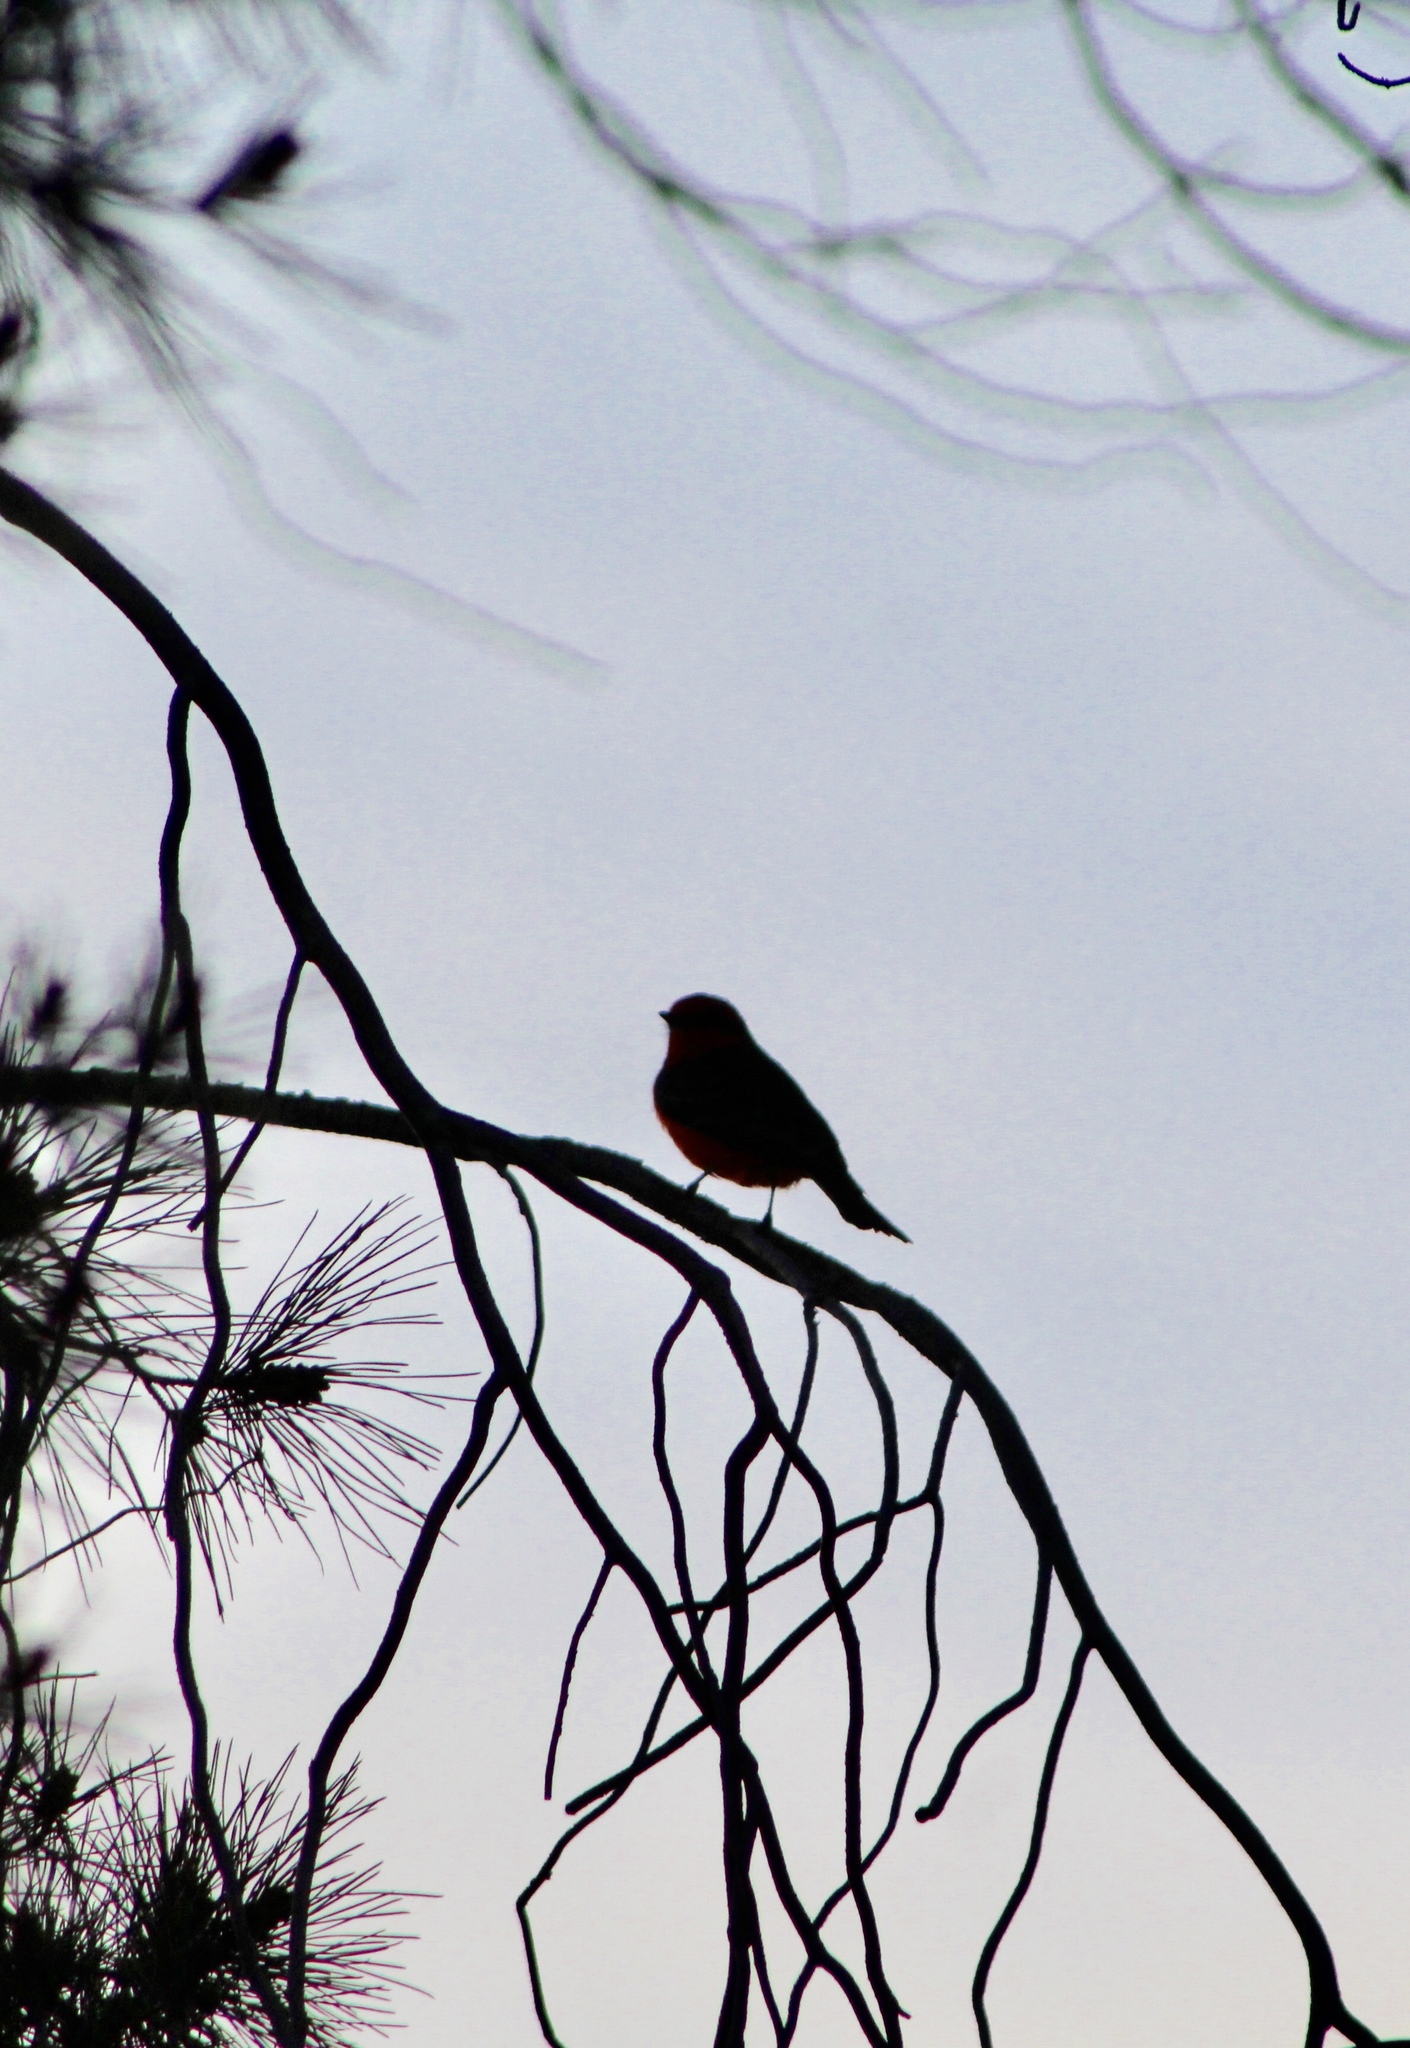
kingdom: Animalia
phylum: Chordata
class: Aves
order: Passeriformes
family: Tyrannidae
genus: Pyrocephalus
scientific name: Pyrocephalus rubinus
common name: Vermilion flycatcher
